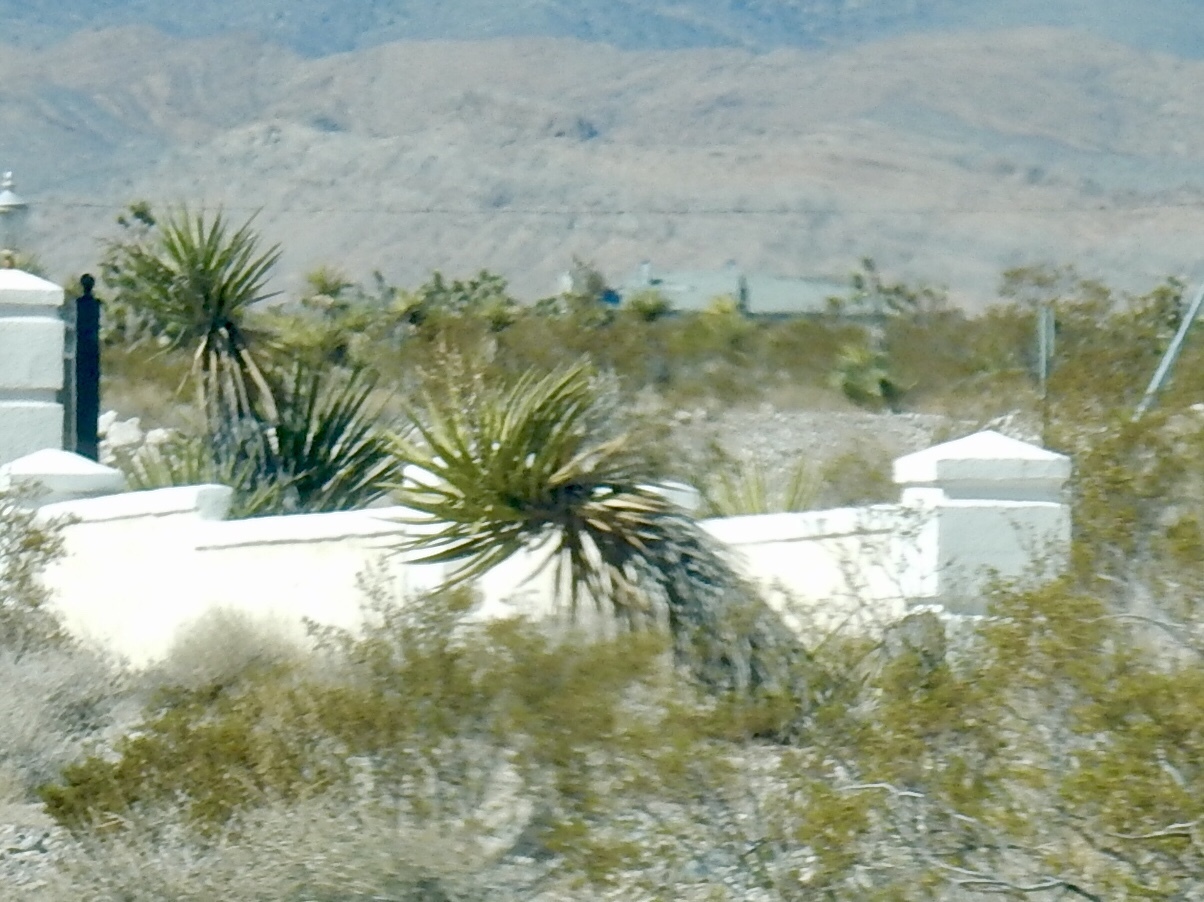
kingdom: Plantae
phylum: Tracheophyta
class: Liliopsida
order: Asparagales
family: Asparagaceae
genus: Yucca
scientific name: Yucca schidigera
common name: Mojave yucca
